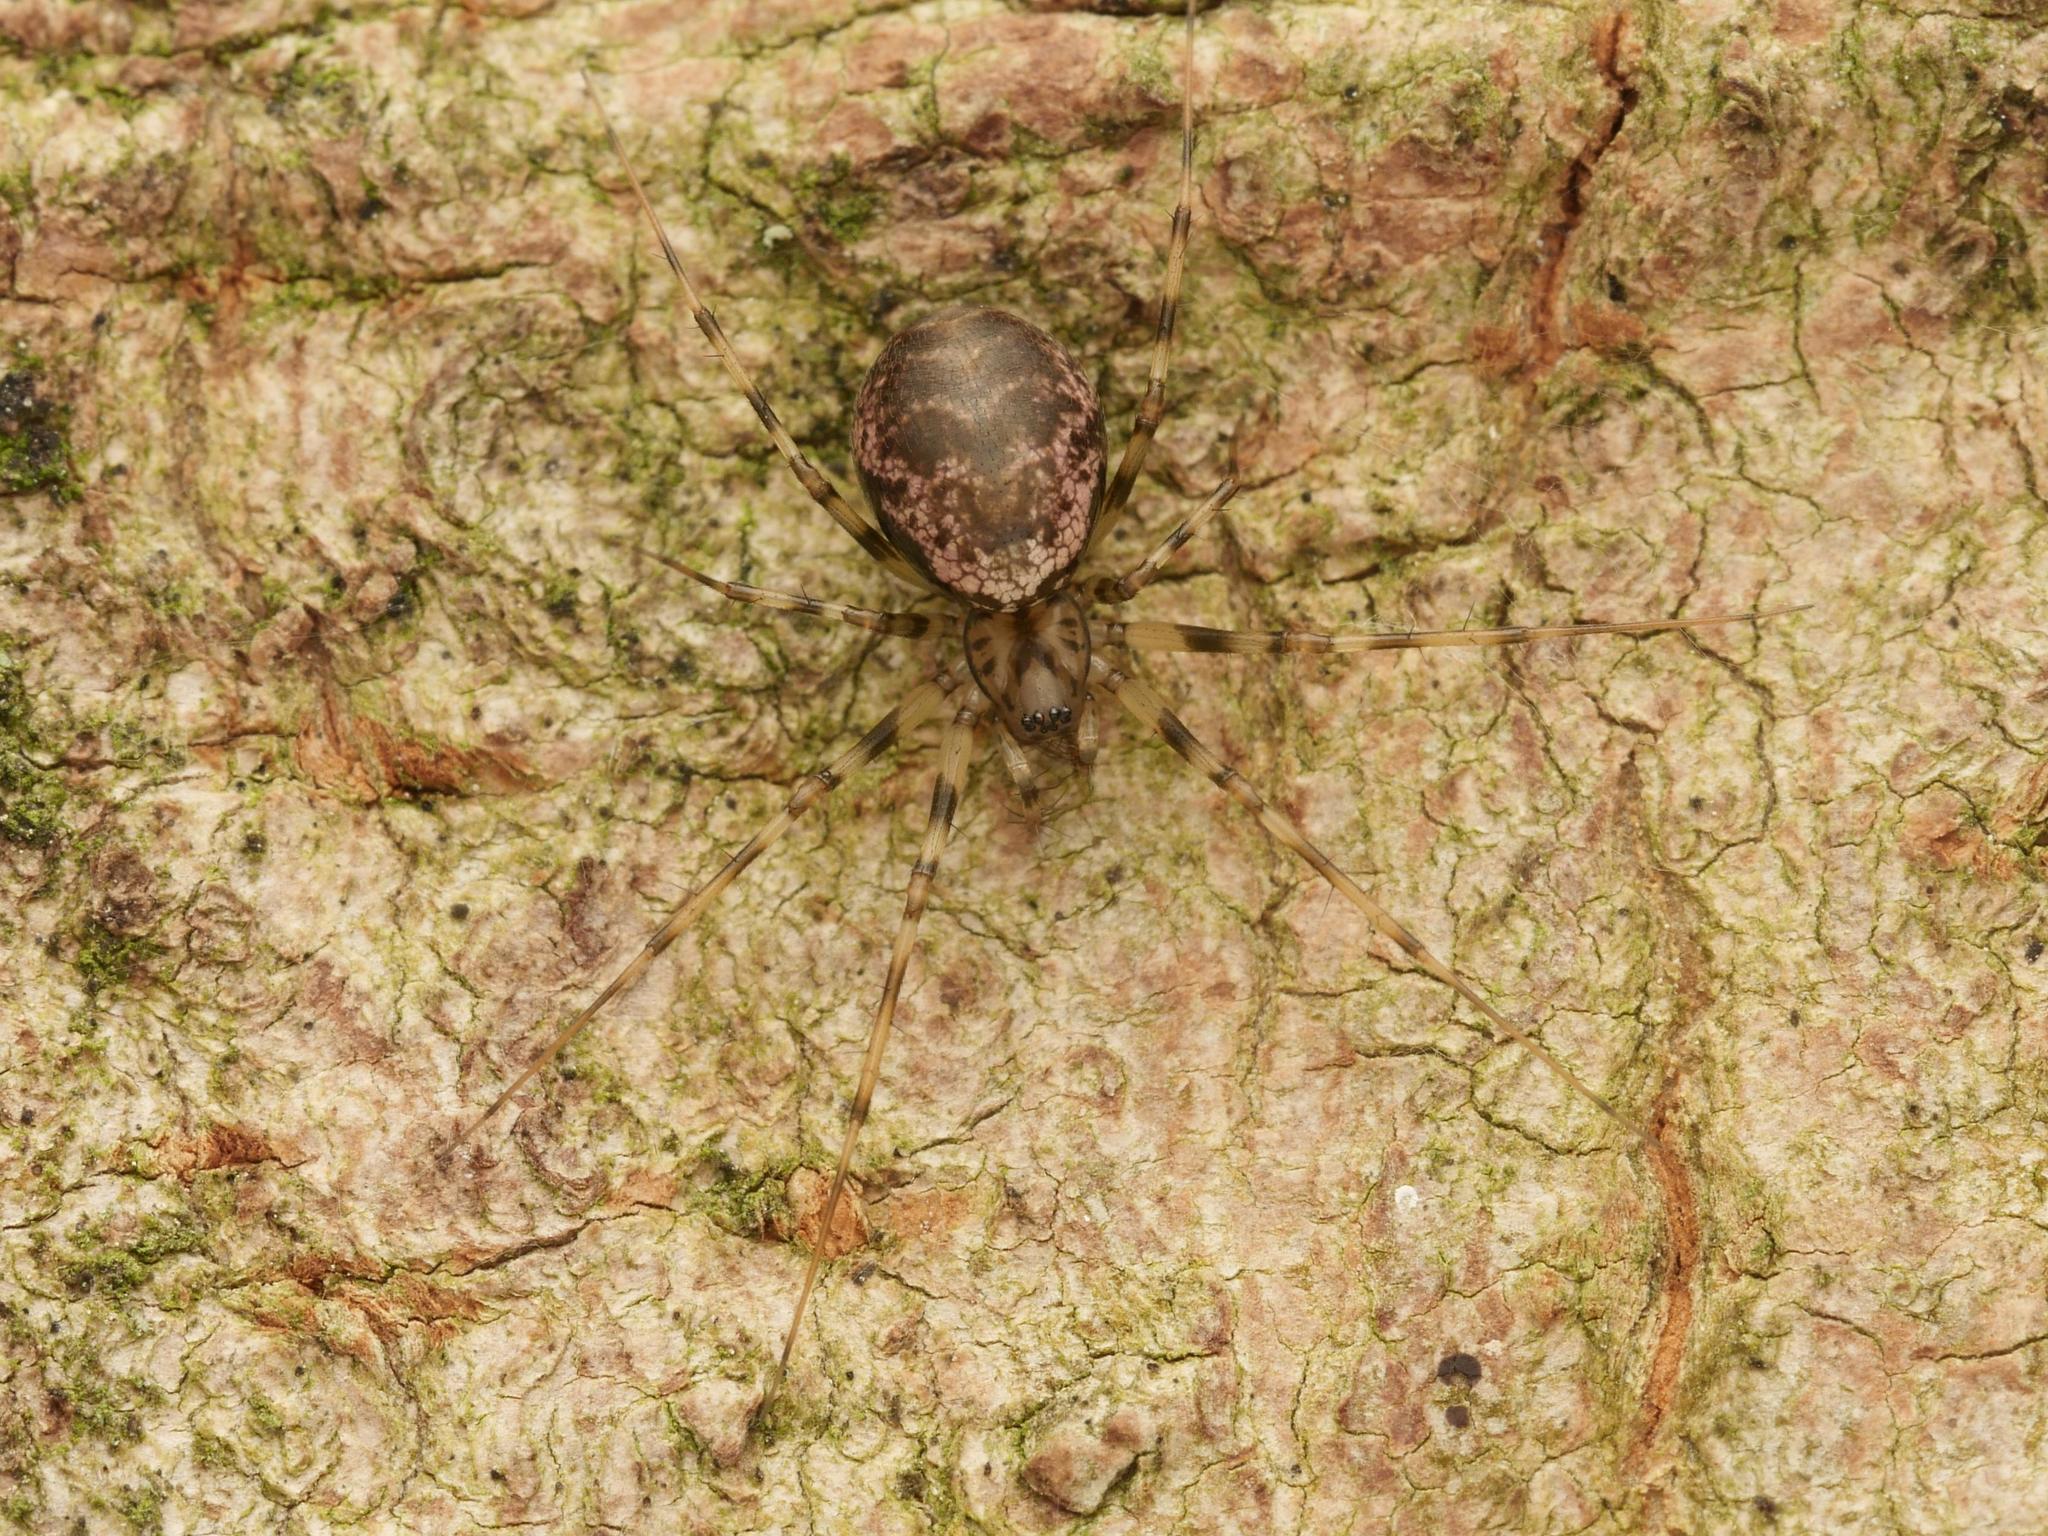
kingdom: Animalia
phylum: Arthropoda
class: Arachnida
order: Araneae
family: Linyphiidae
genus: Drapetisca
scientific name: Drapetisca socialis
